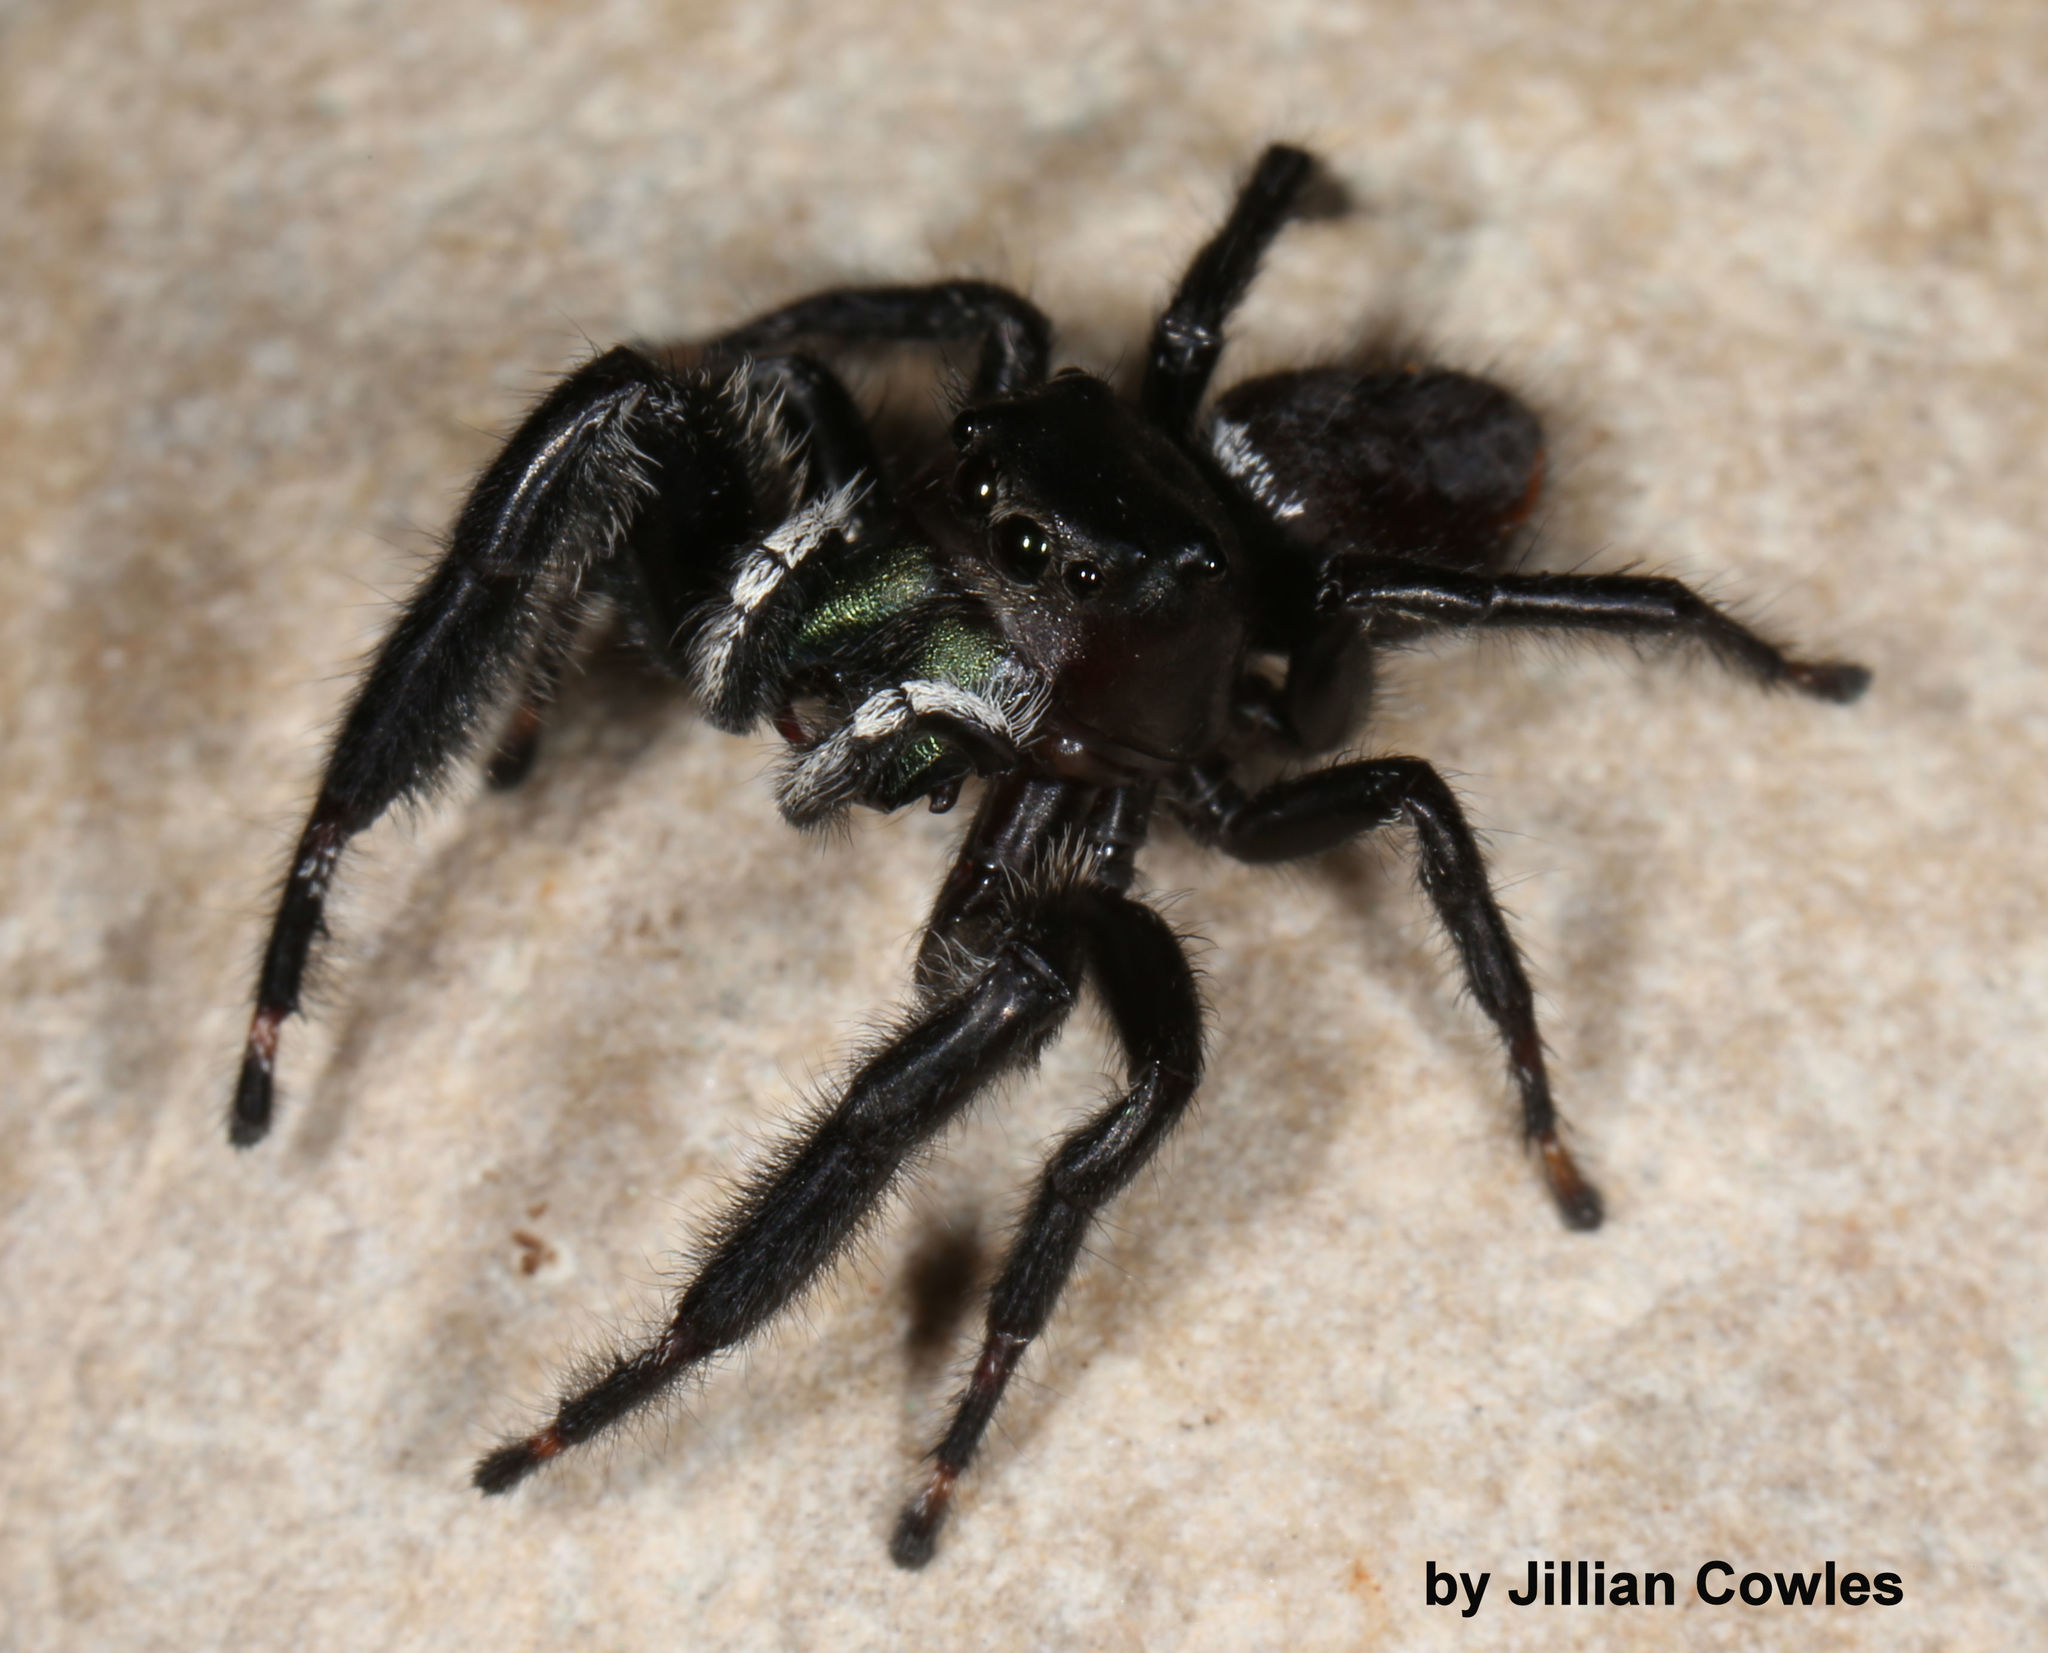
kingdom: Animalia
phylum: Arthropoda
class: Arachnida
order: Araneae
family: Salticidae
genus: Phidippus
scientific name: Phidippus clarus
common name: Brilliant jumping spider
